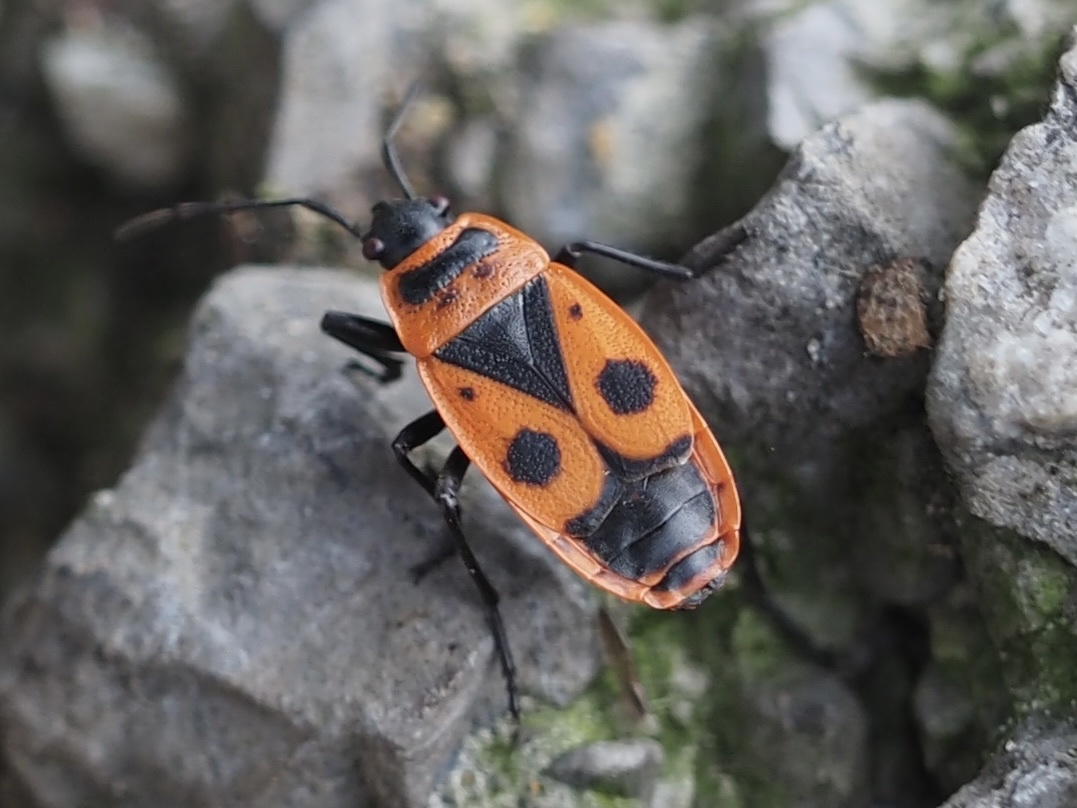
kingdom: Animalia
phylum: Arthropoda
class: Insecta
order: Hemiptera
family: Pyrrhocoridae
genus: Pyrrhocoris
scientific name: Pyrrhocoris apterus
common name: Firebug
